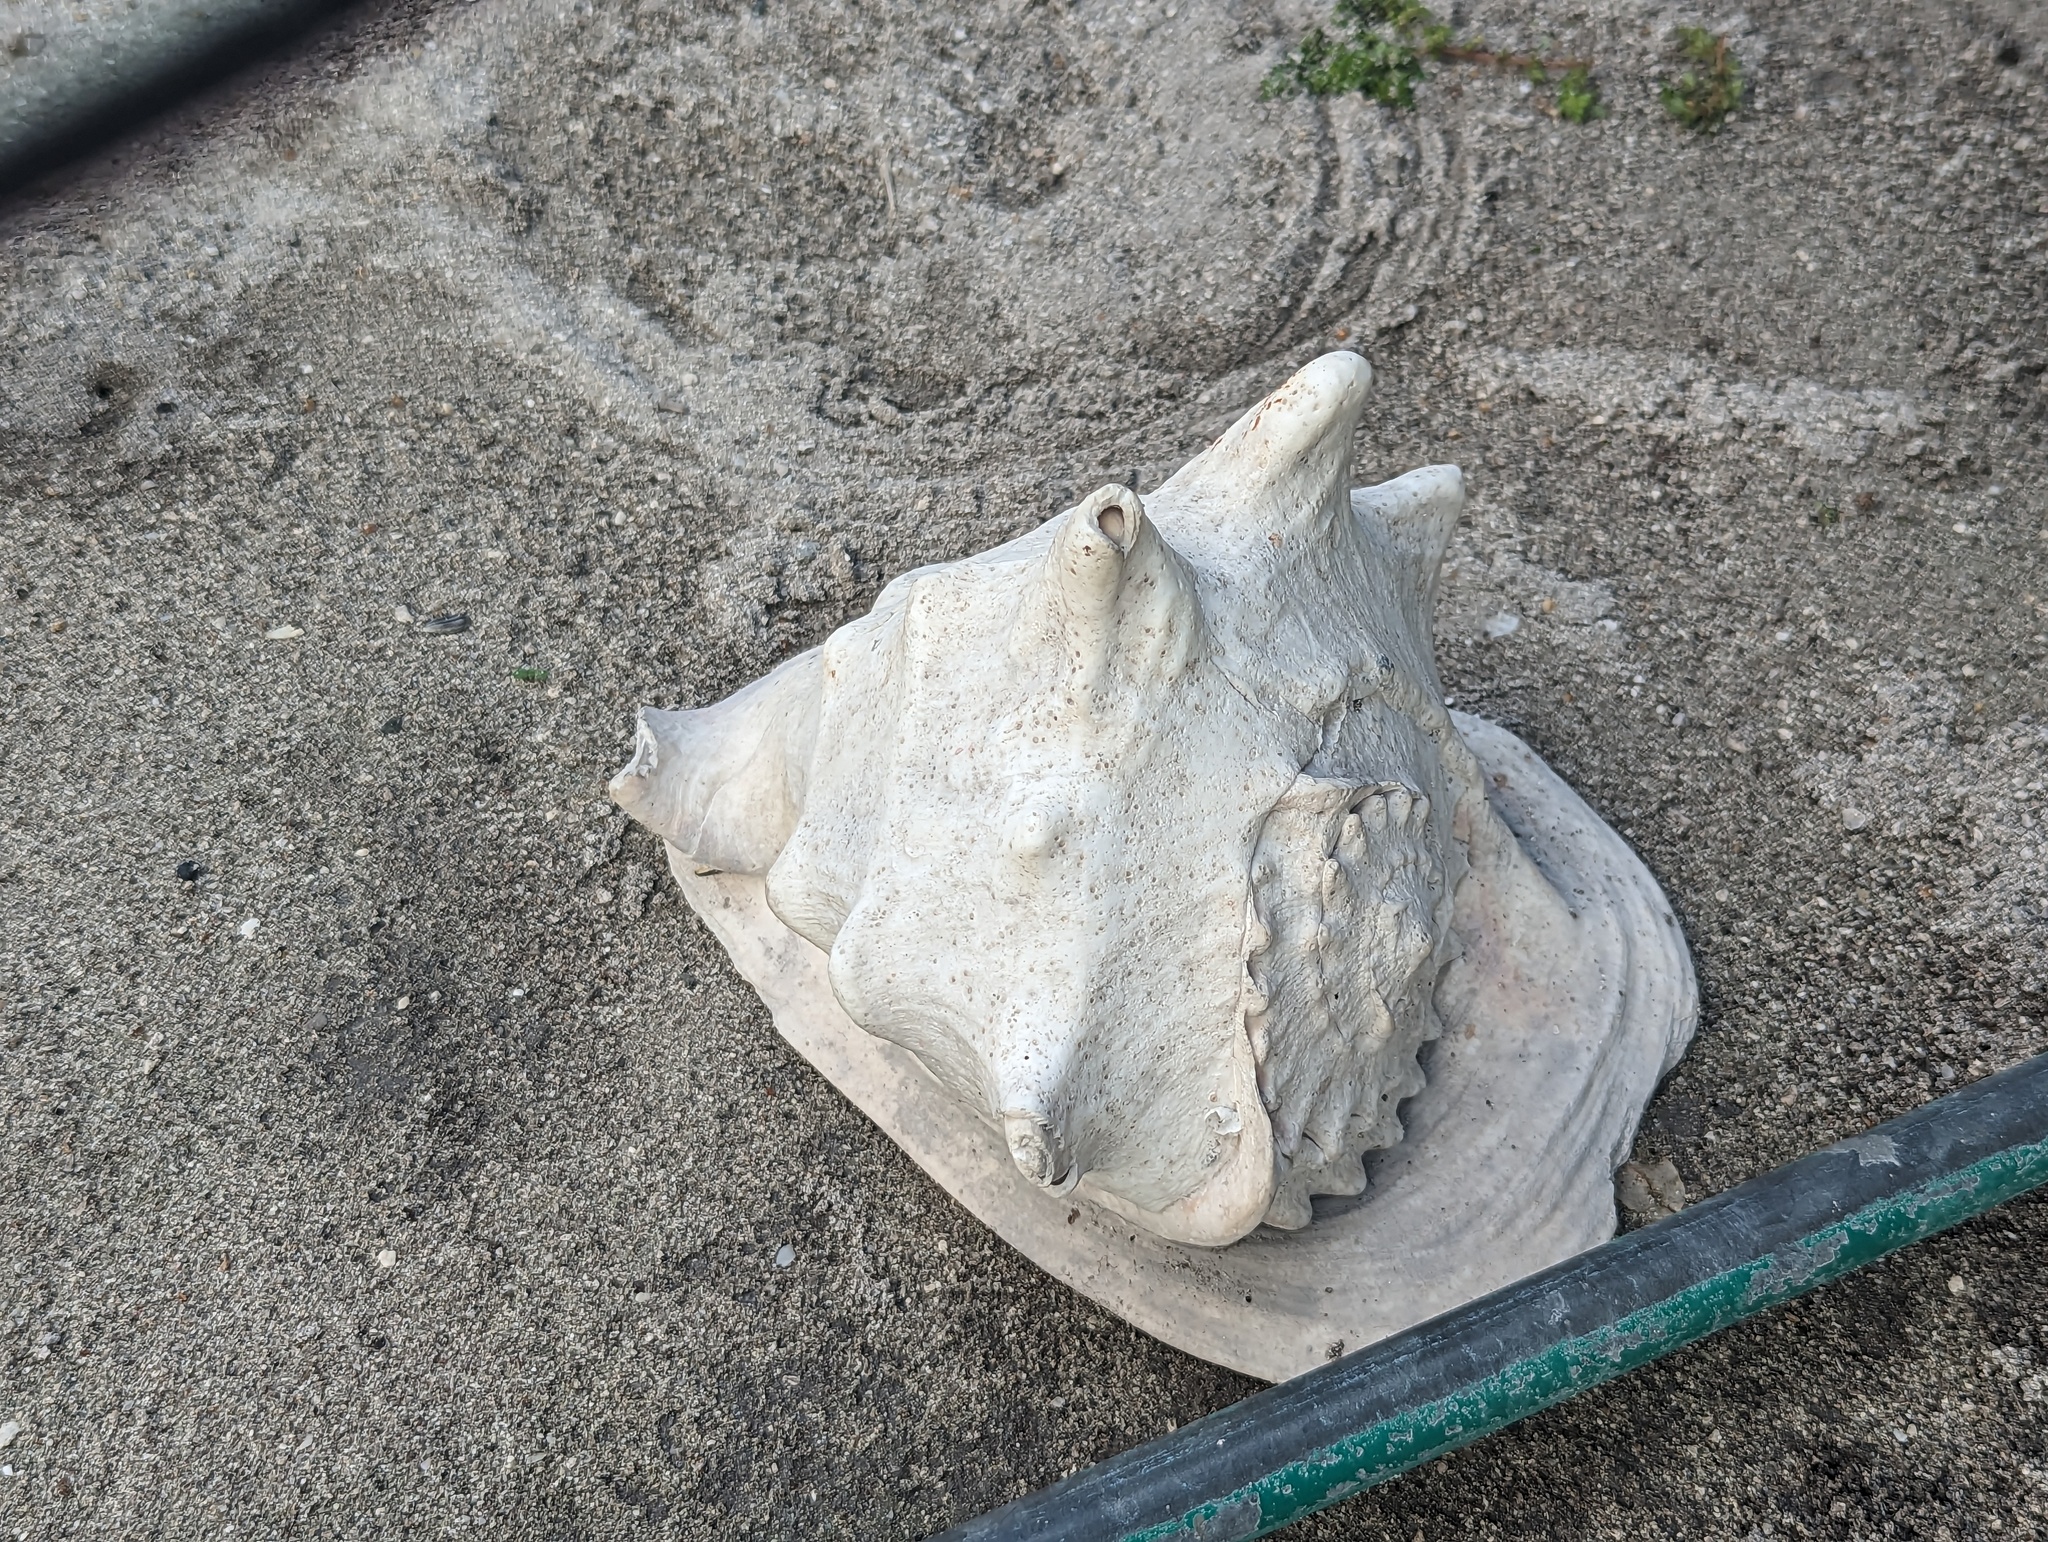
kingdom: Animalia
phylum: Mollusca
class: Gastropoda
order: Littorinimorpha
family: Cassidae
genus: Cassis
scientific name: Cassis cornuta
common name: Giant helmet
